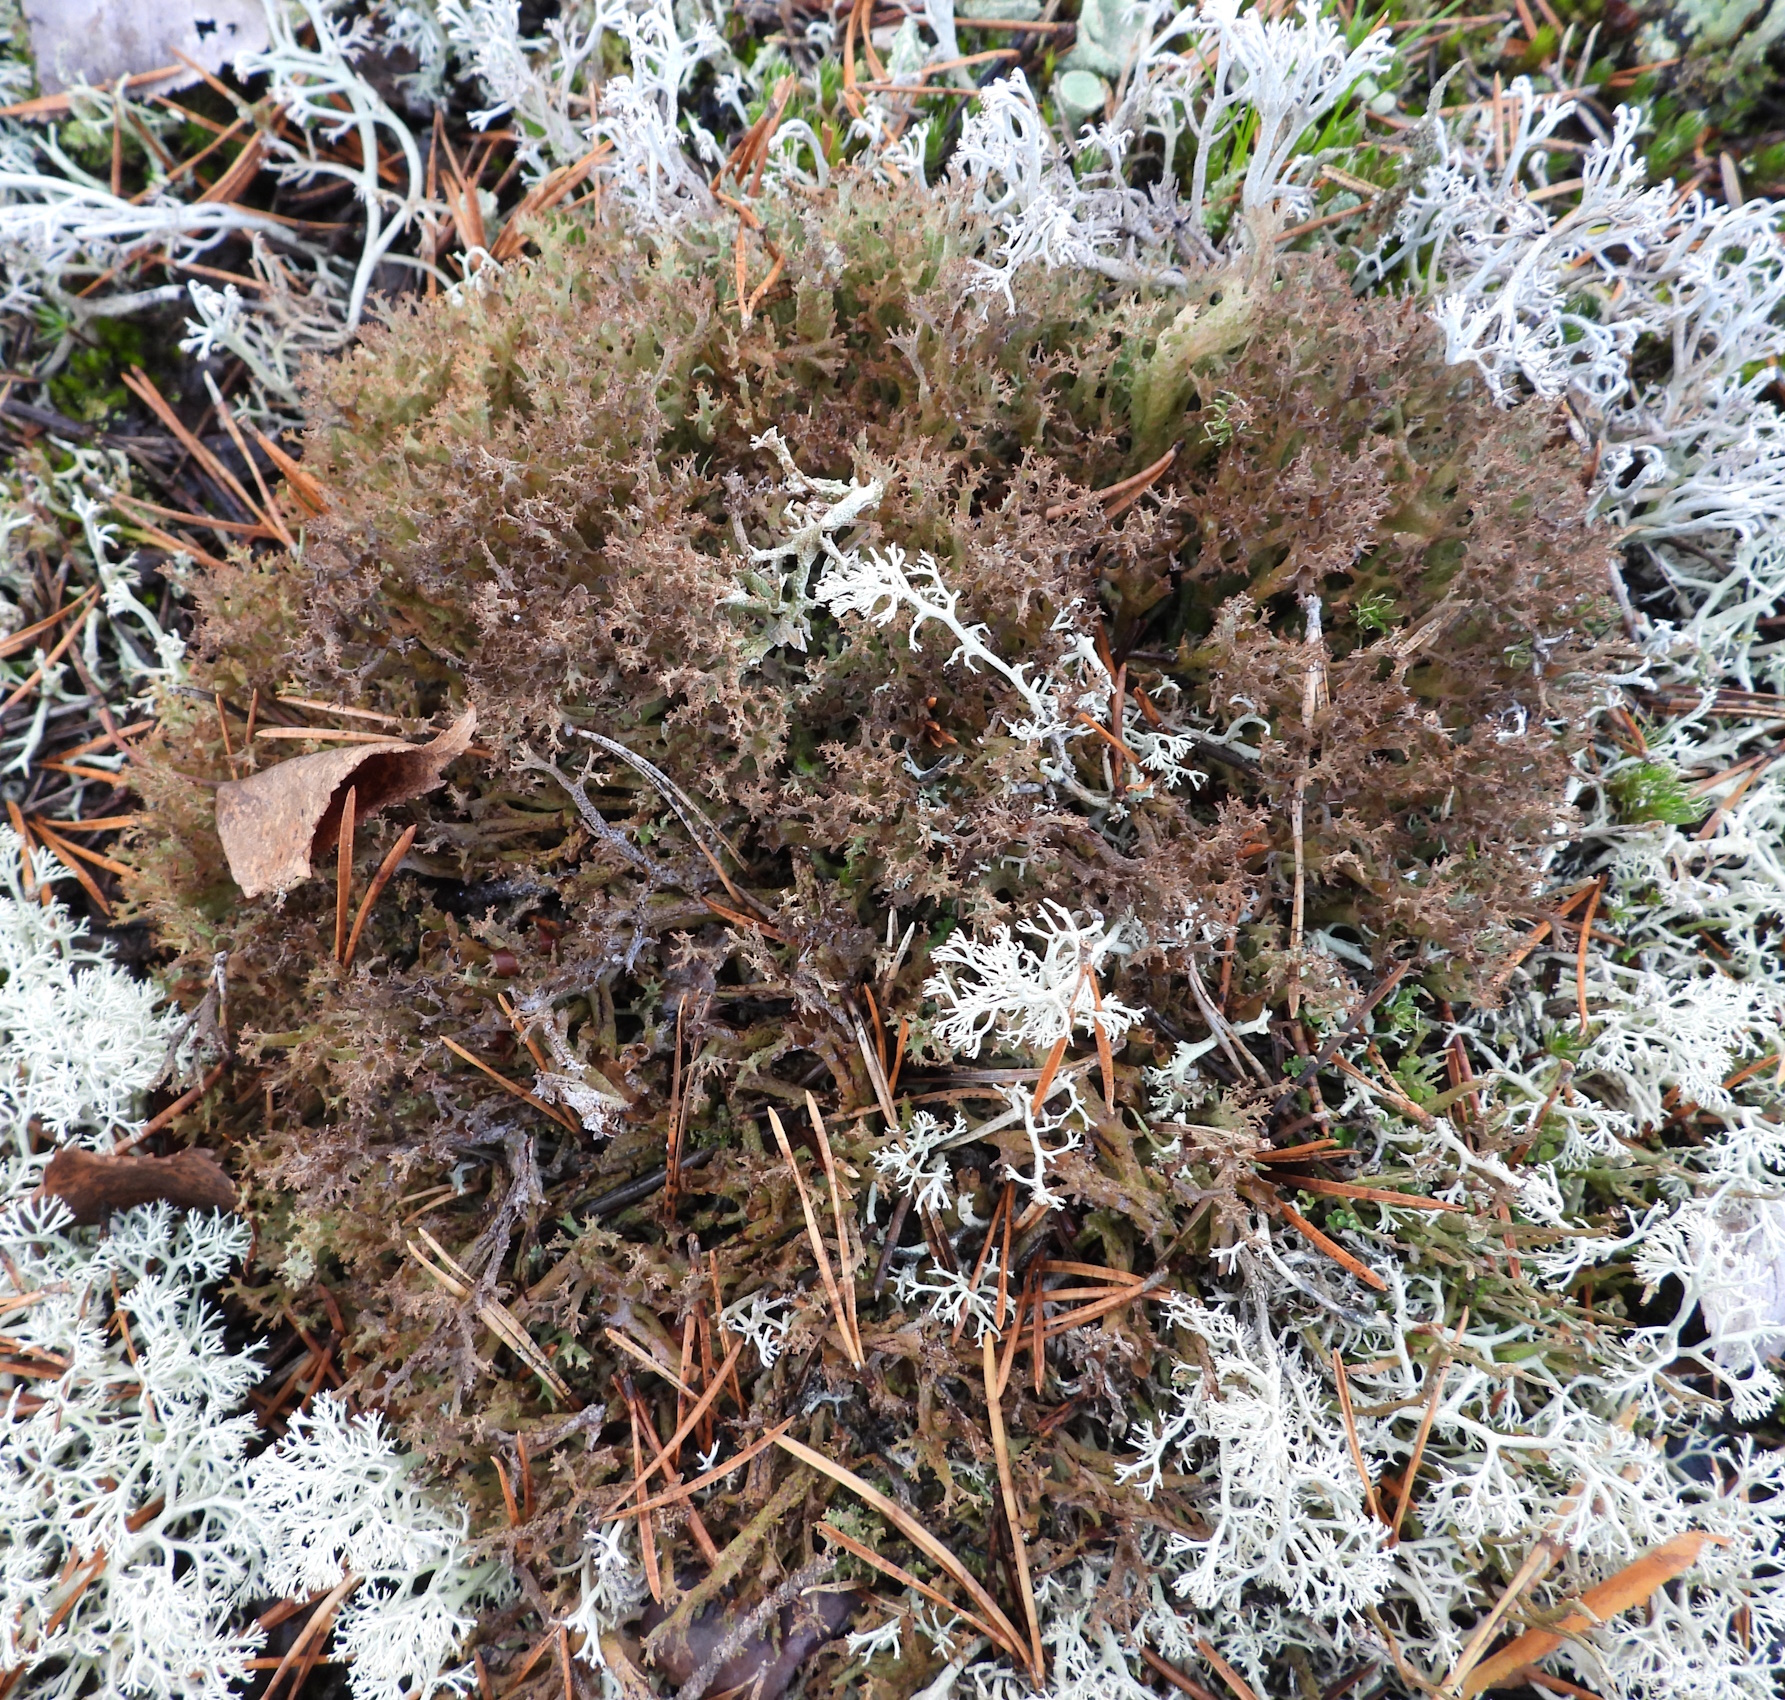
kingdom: Fungi
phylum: Ascomycota
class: Lecanoromycetes
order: Lecanorales
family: Cladoniaceae
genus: Cladonia
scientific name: Cladonia crispata
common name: Organ-pipe lichen
